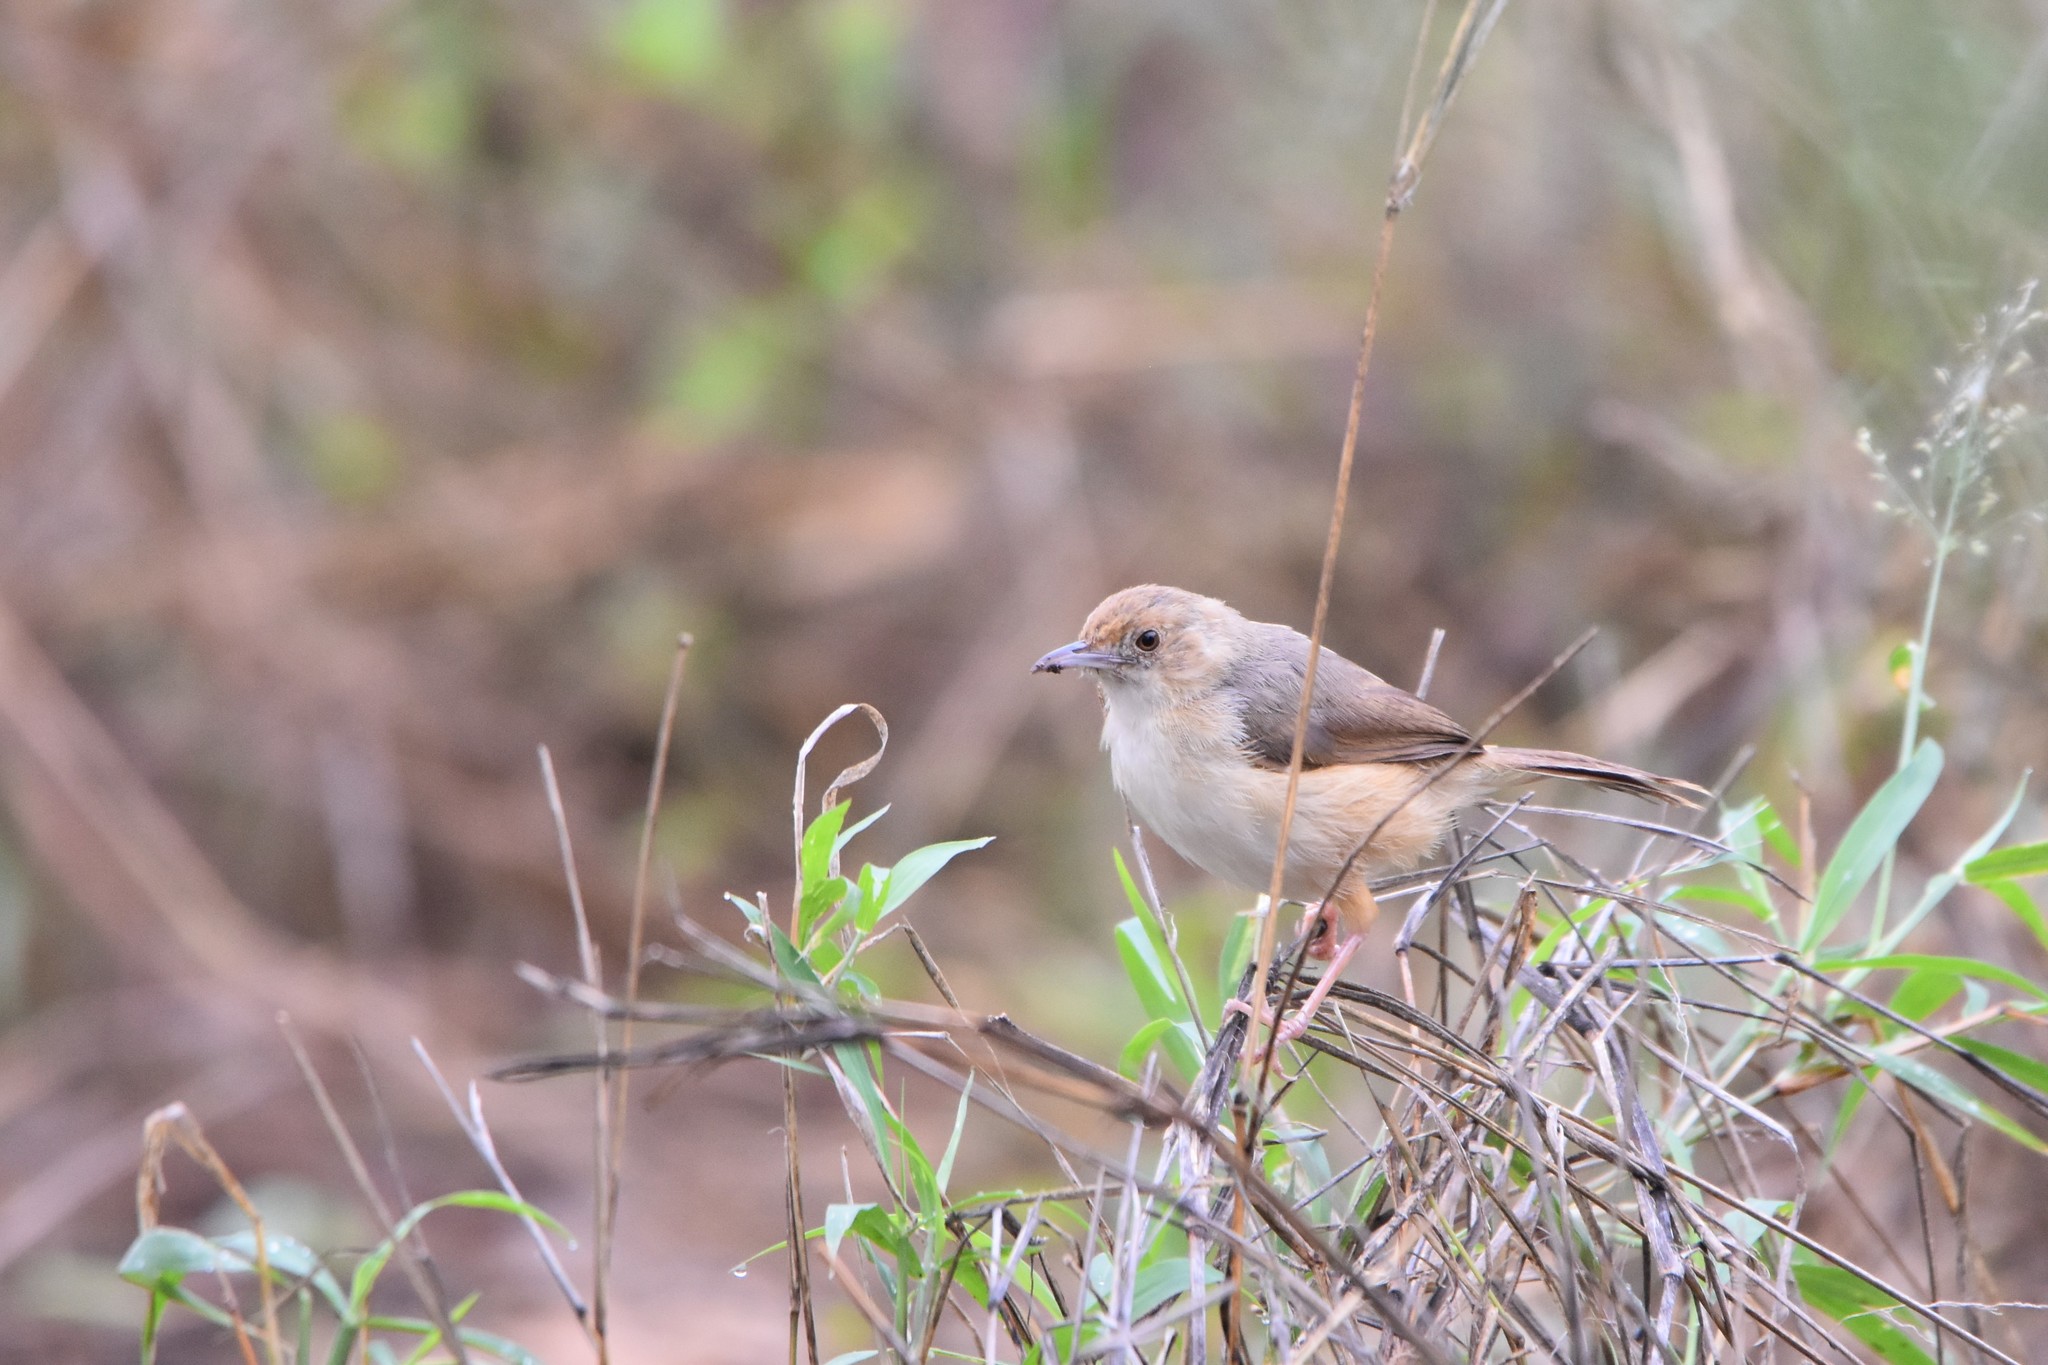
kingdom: Animalia
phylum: Chordata
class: Aves
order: Passeriformes
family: Cisticolidae
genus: Cisticola
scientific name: Cisticola erythrops
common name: Red-faced cisticola
